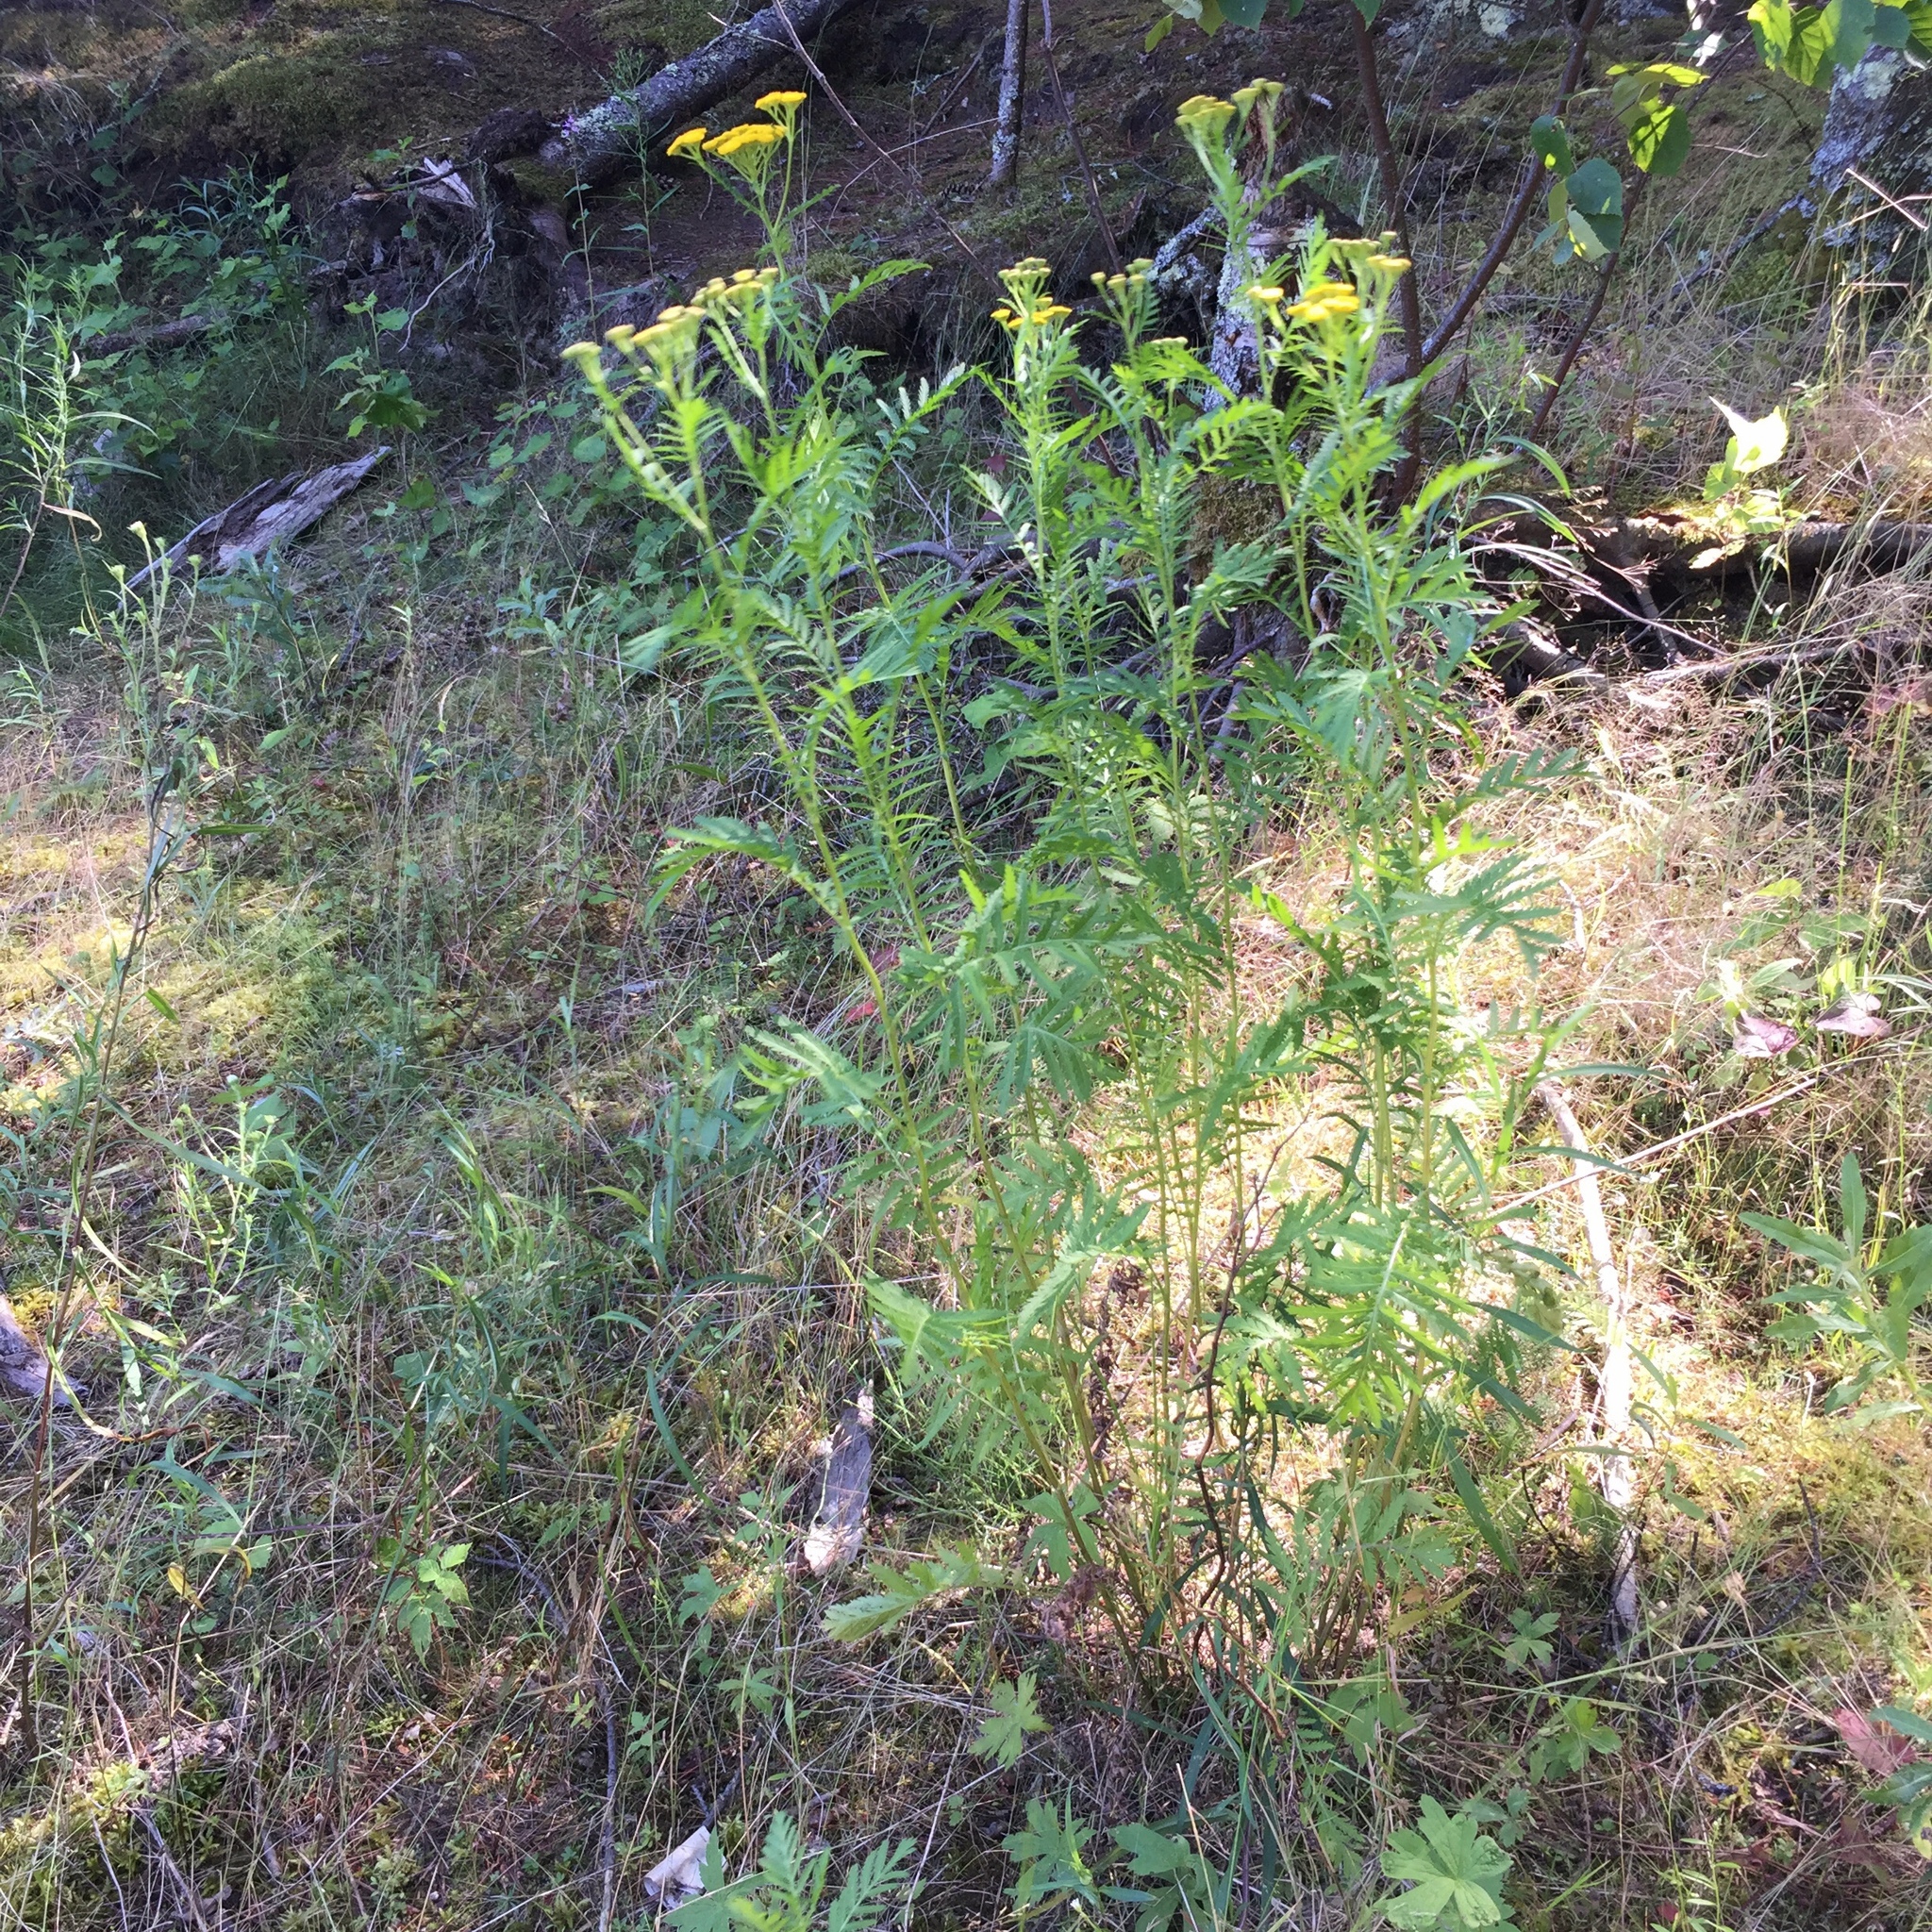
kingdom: Plantae
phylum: Tracheophyta
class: Magnoliopsida
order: Asterales
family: Asteraceae
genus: Tanacetum
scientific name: Tanacetum vulgare
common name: Common tansy
